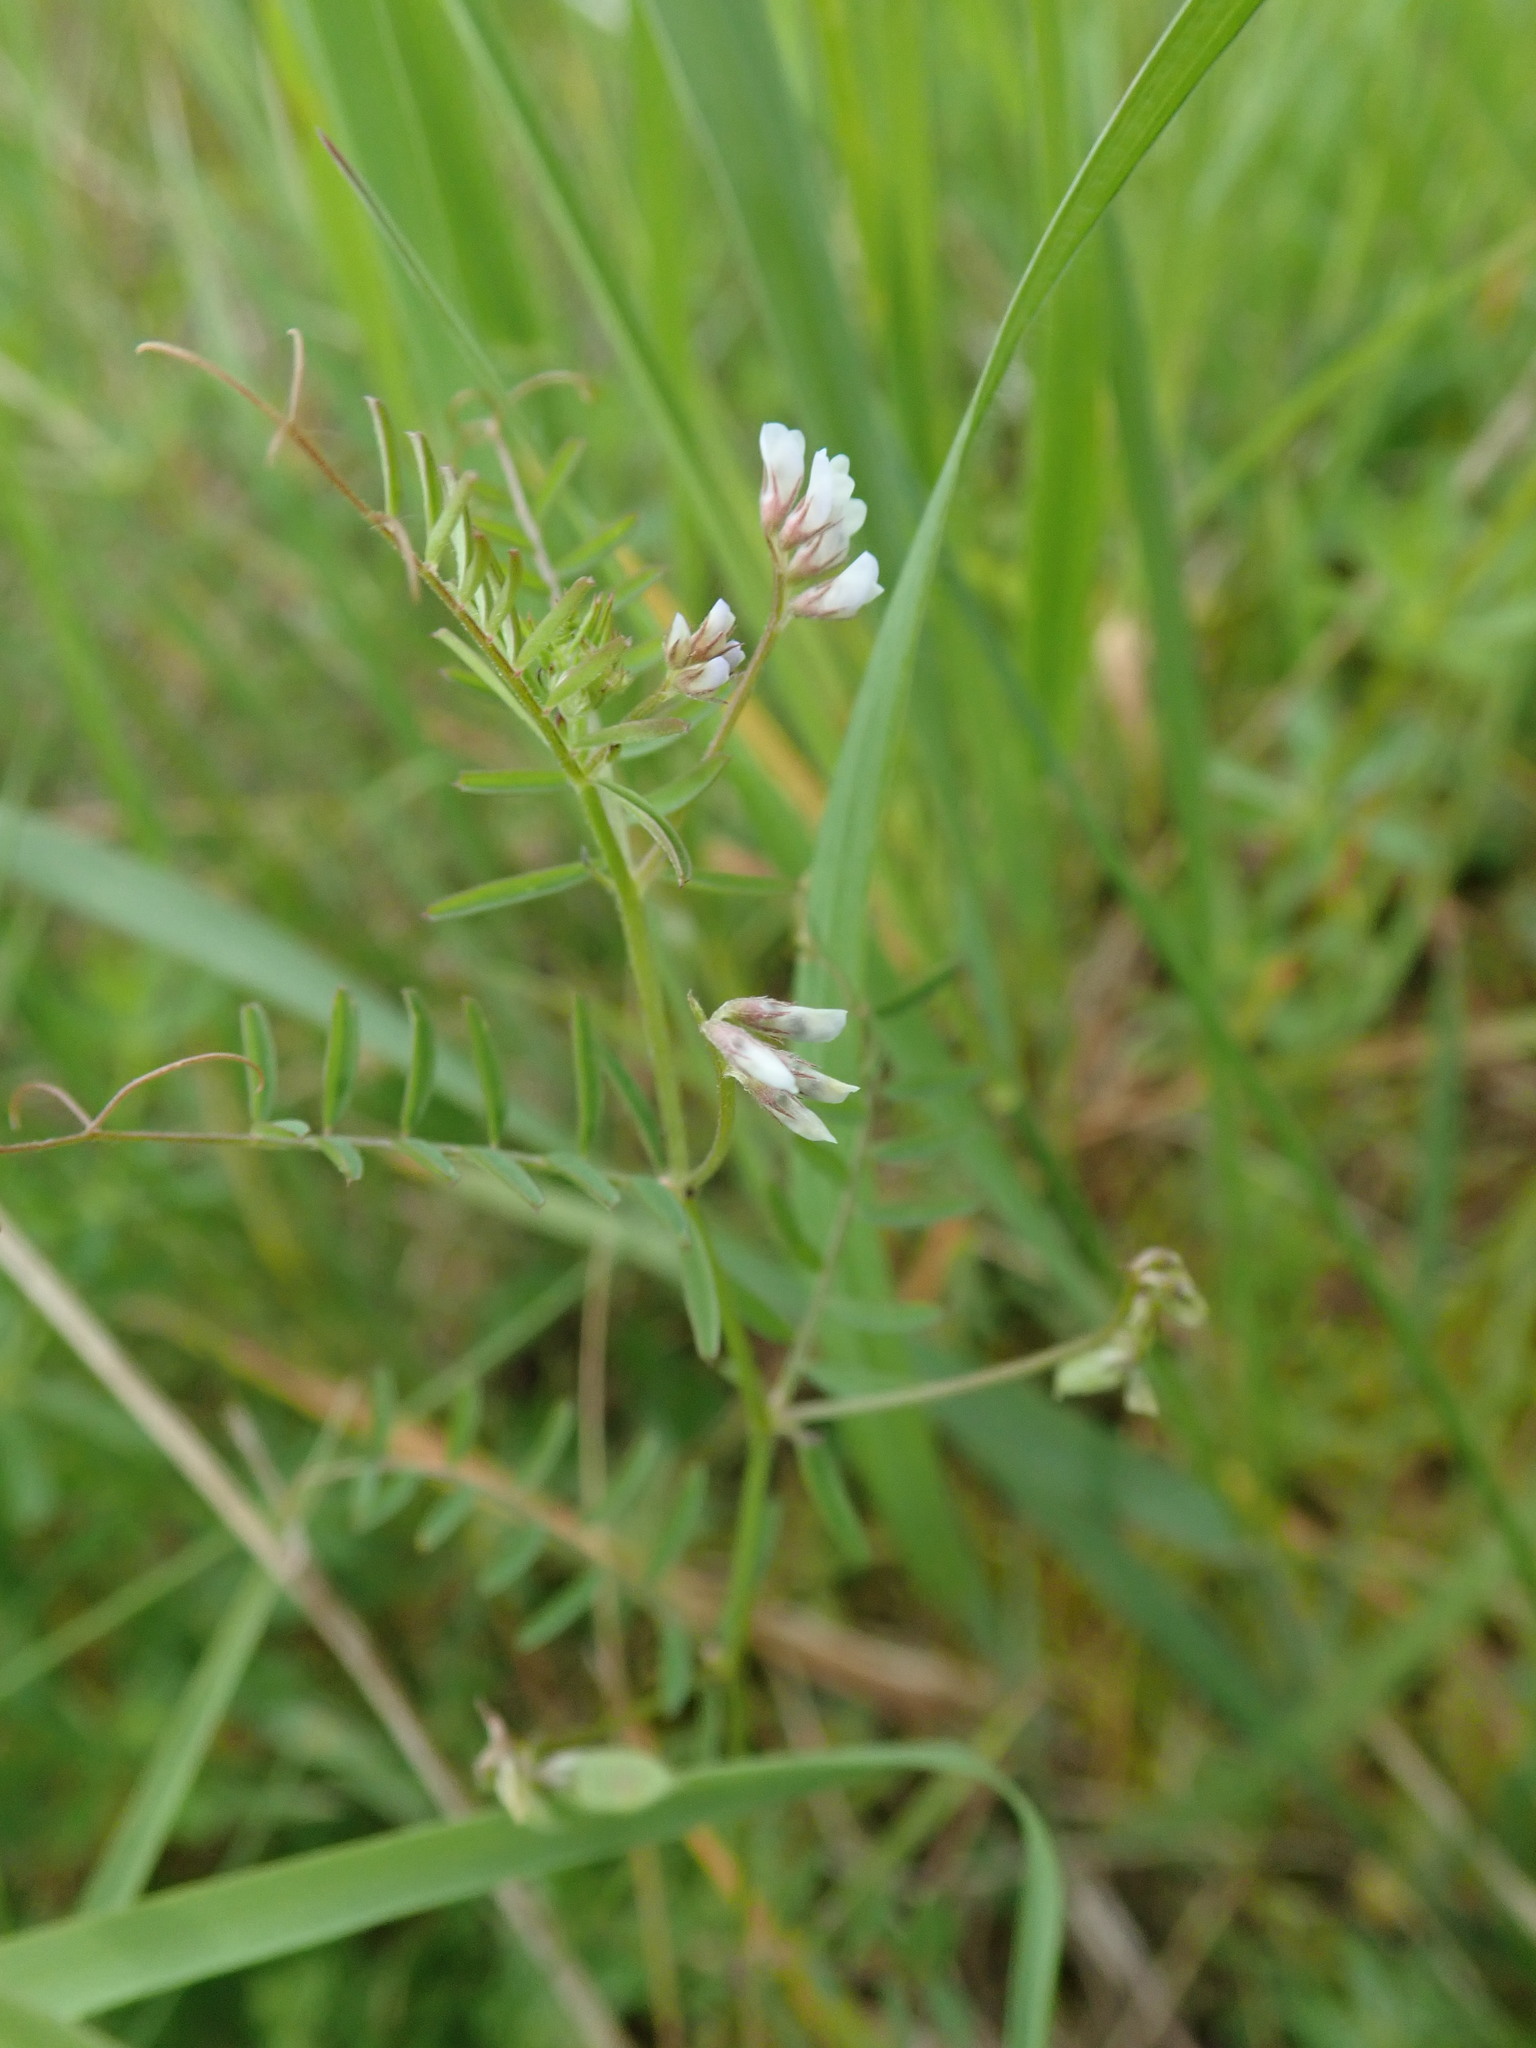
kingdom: Plantae
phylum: Tracheophyta
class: Magnoliopsida
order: Fabales
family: Fabaceae
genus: Vicia
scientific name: Vicia hirsuta
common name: Tiny vetch
